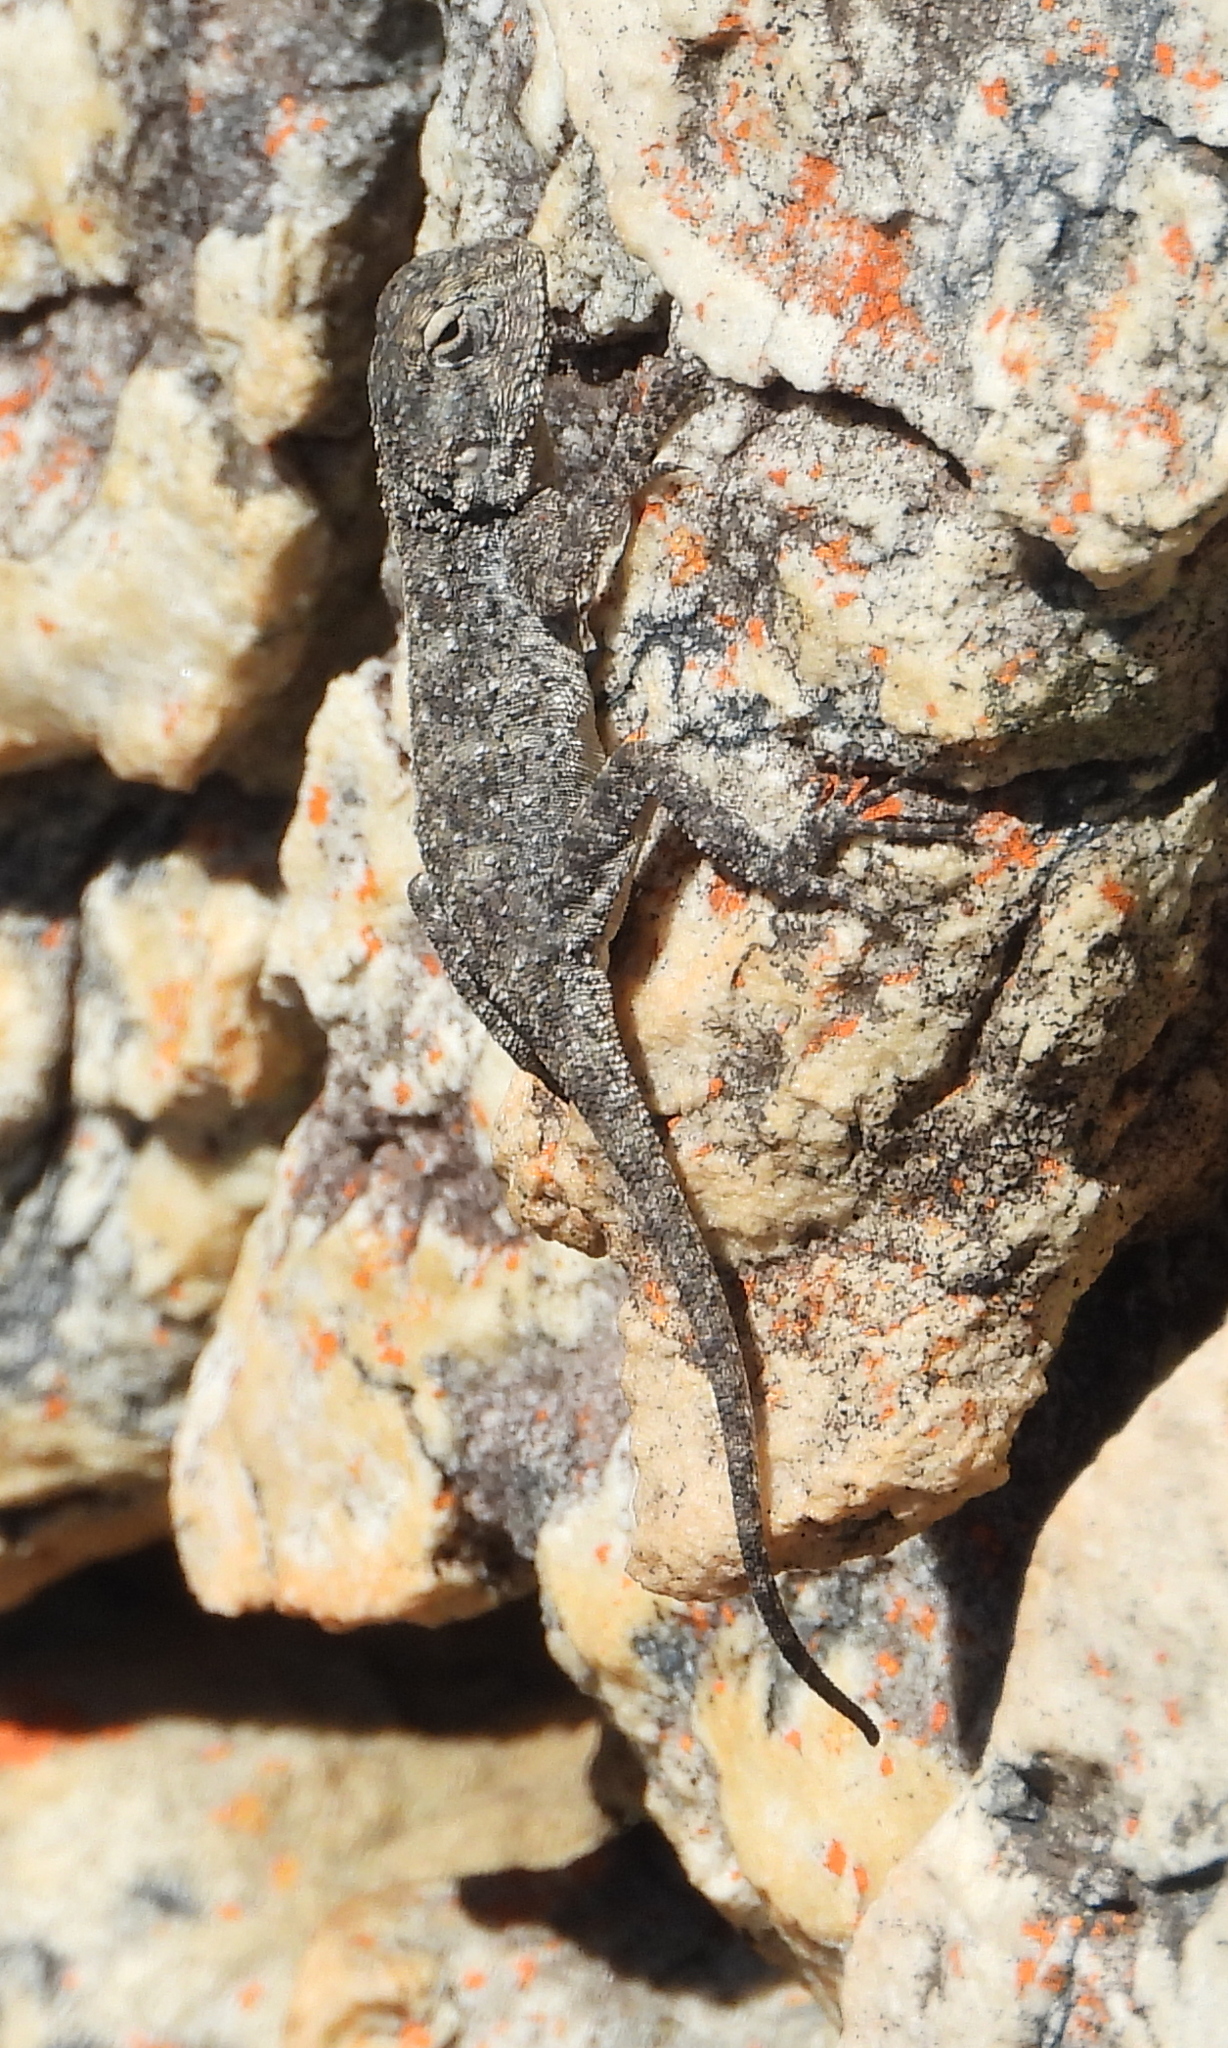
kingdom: Animalia
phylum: Chordata
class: Squamata
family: Agamidae
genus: Agama
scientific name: Agama atra
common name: Southern african rock agama
